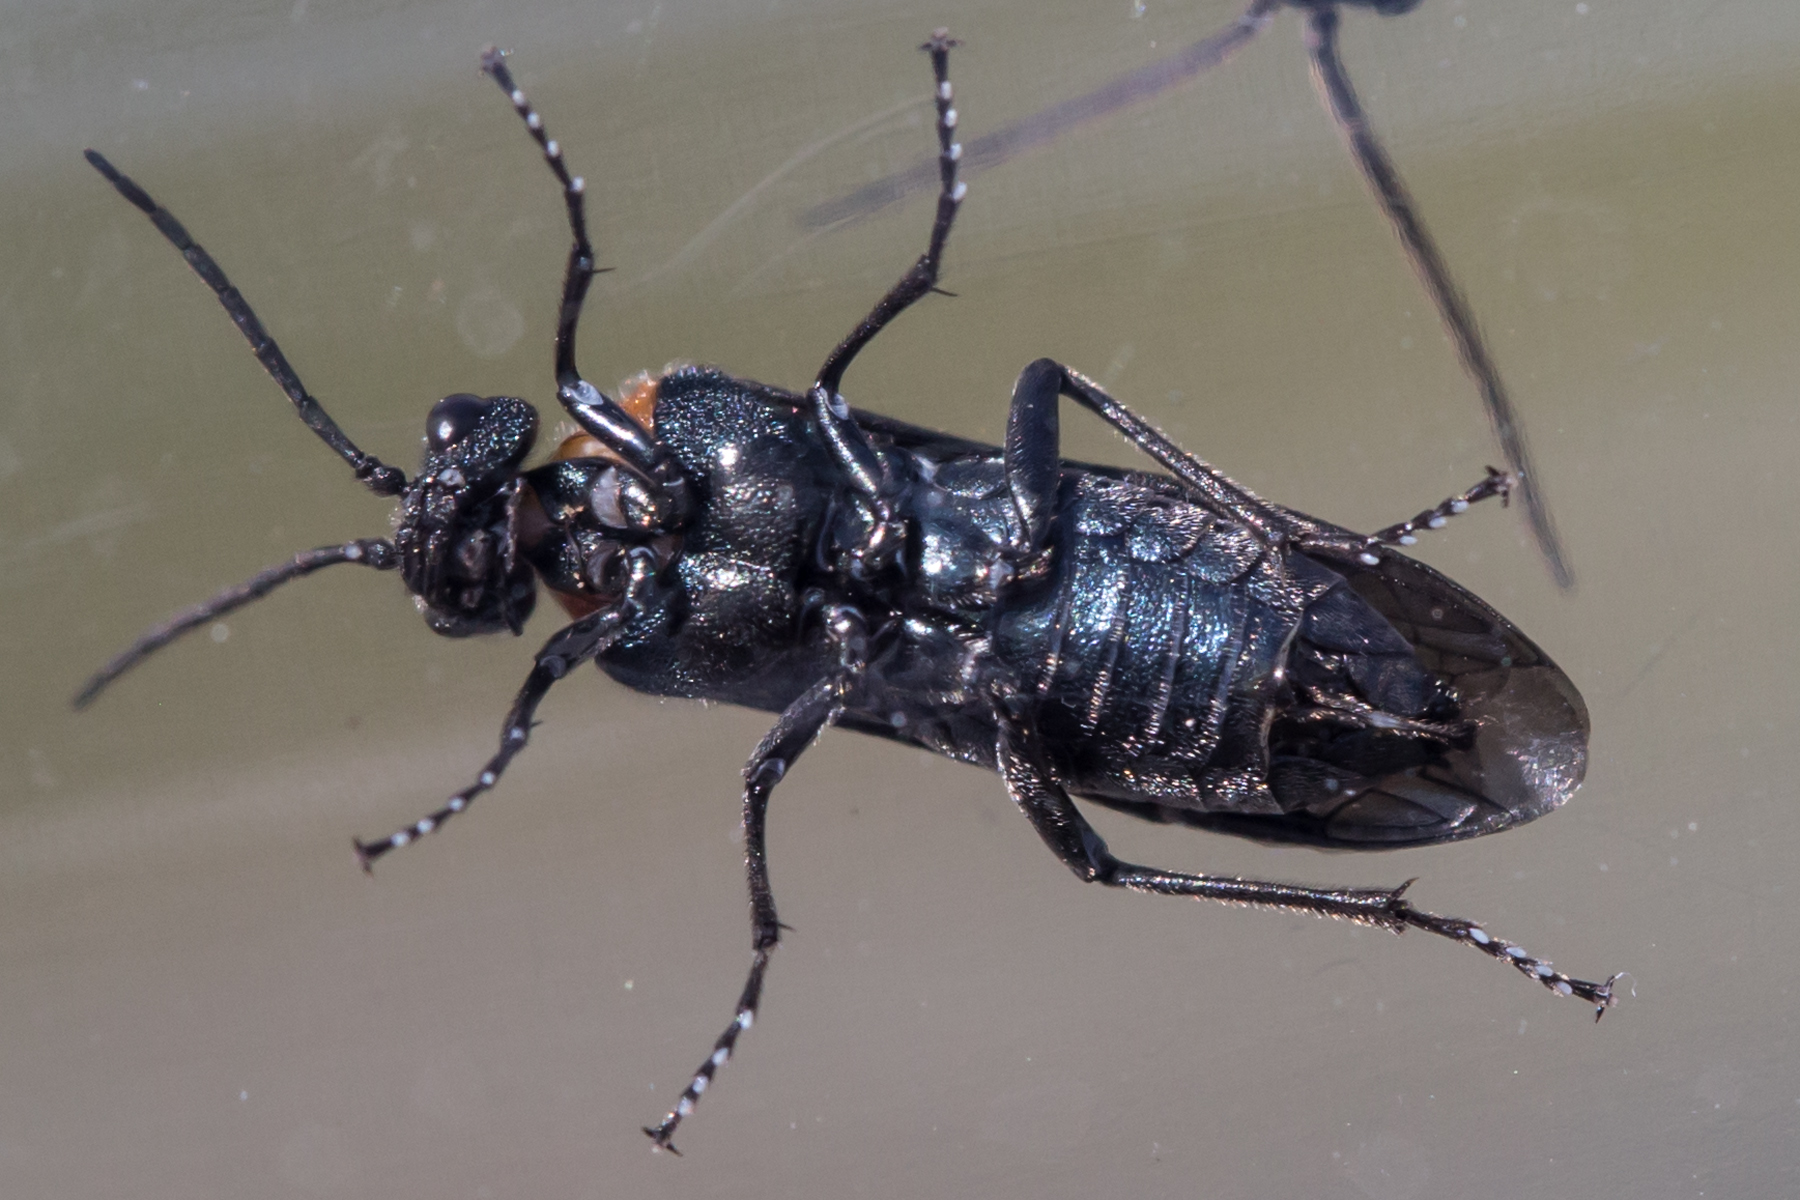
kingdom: Animalia
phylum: Arthropoda
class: Insecta
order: Hymenoptera
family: Tenthredinidae
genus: Dolerus
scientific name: Dolerus unicolor
